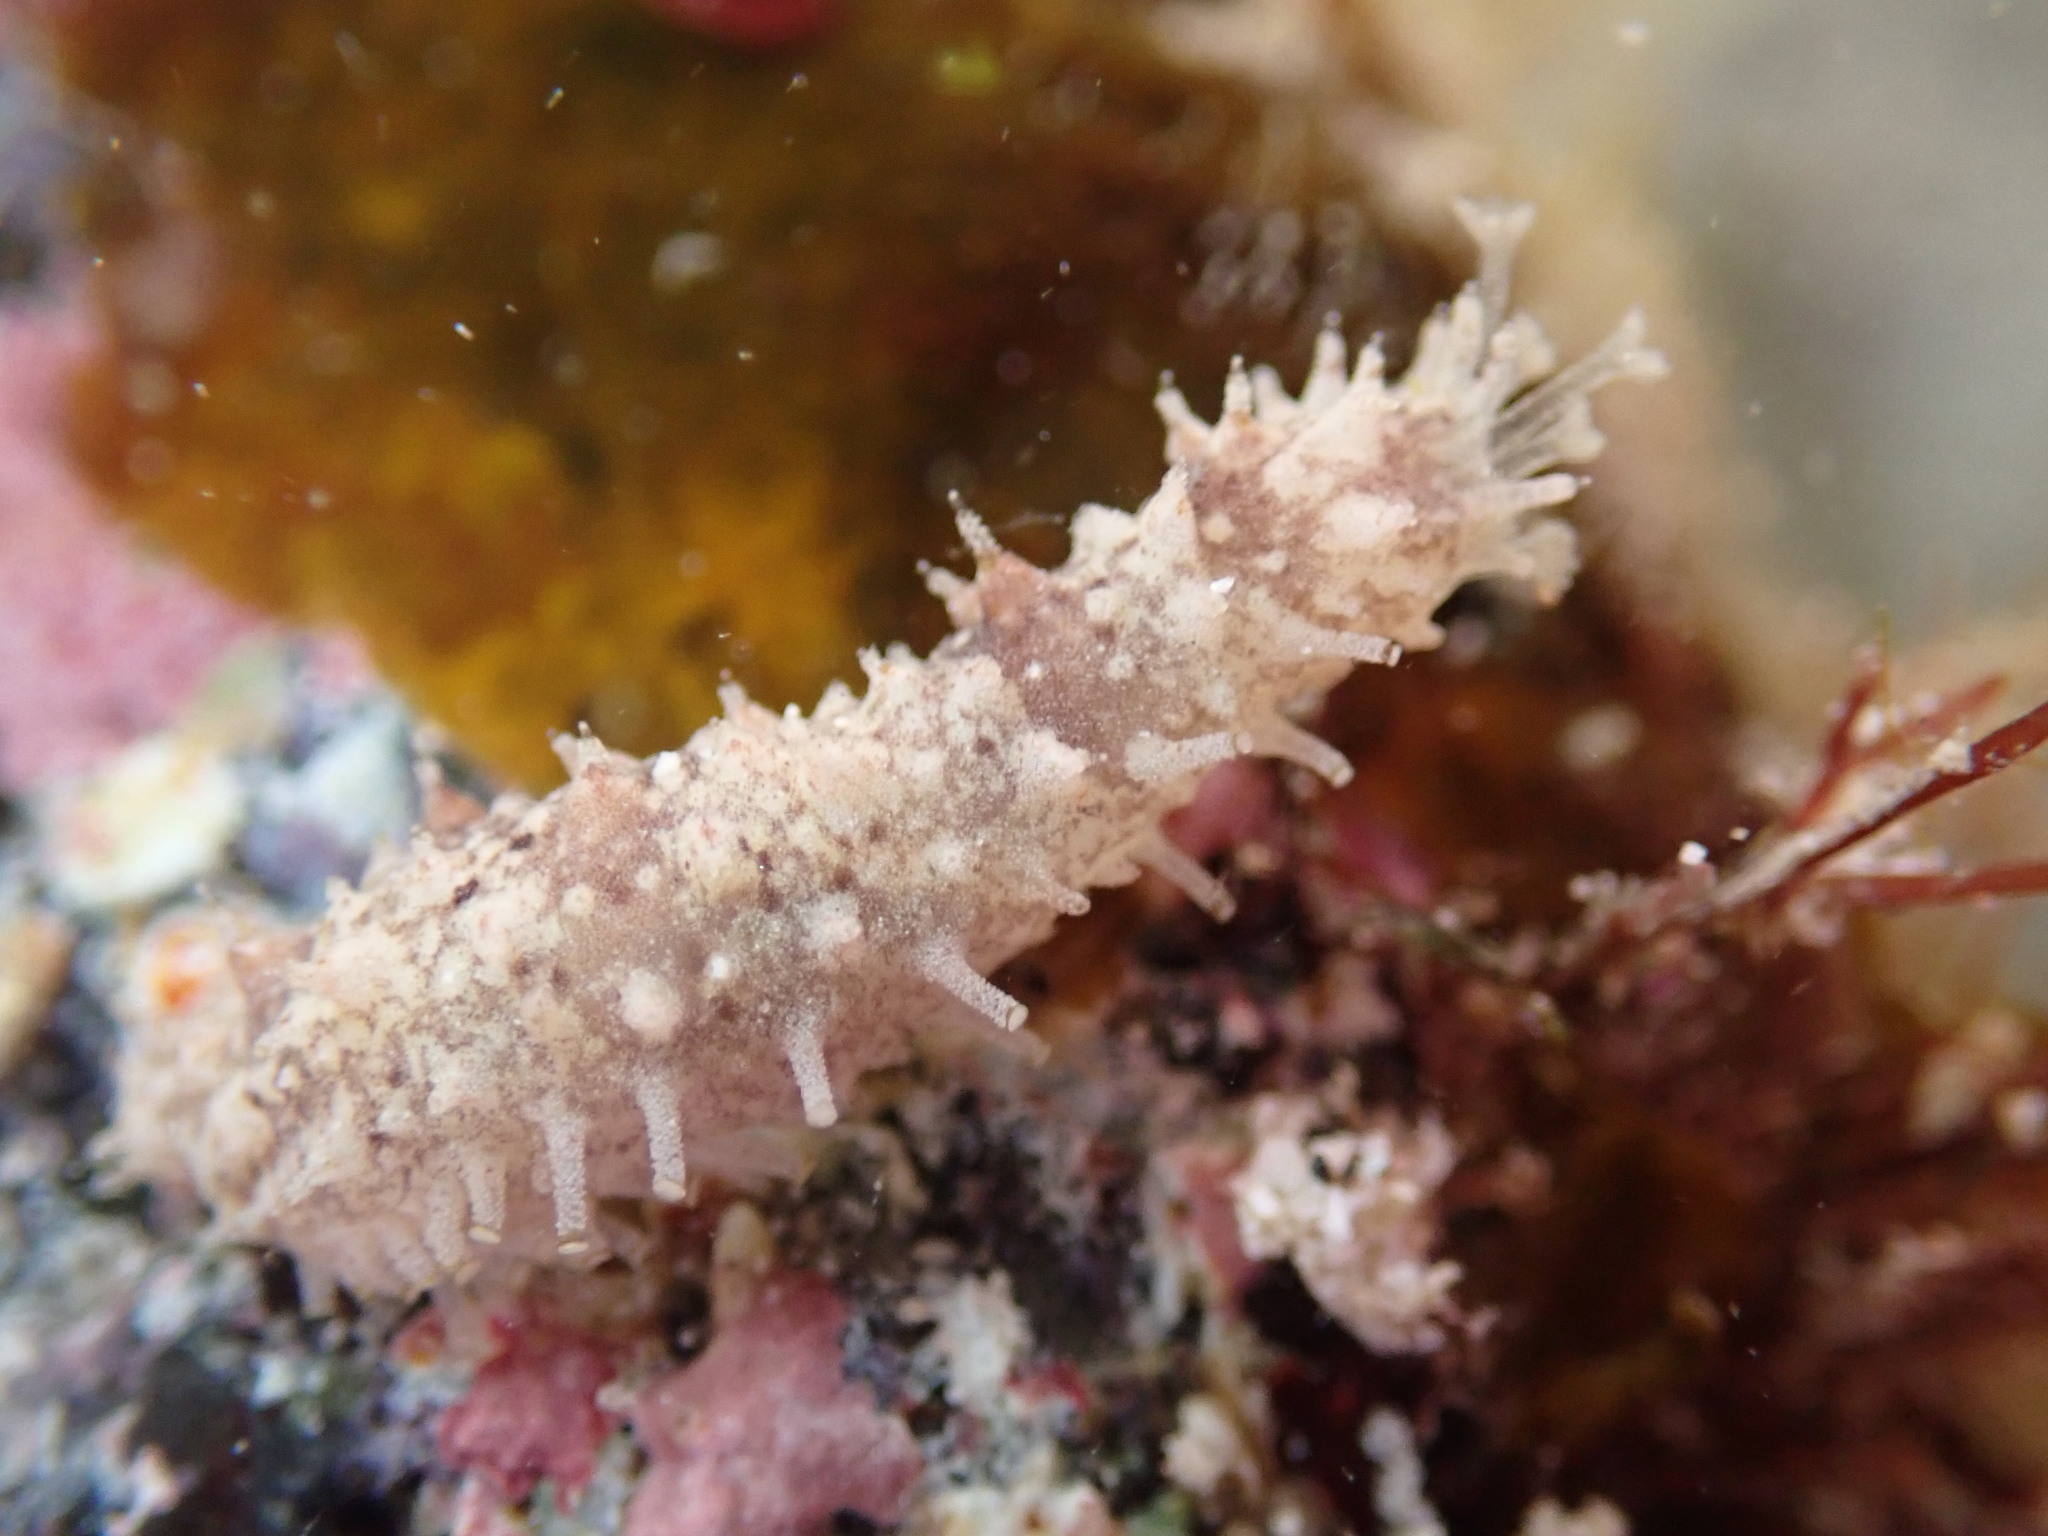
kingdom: Animalia
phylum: Echinodermata
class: Holothuroidea
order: Holothuriida
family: Holothuriidae
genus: Holothuria
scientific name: Holothuria impatiens
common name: Bottleneck sea cucumber
